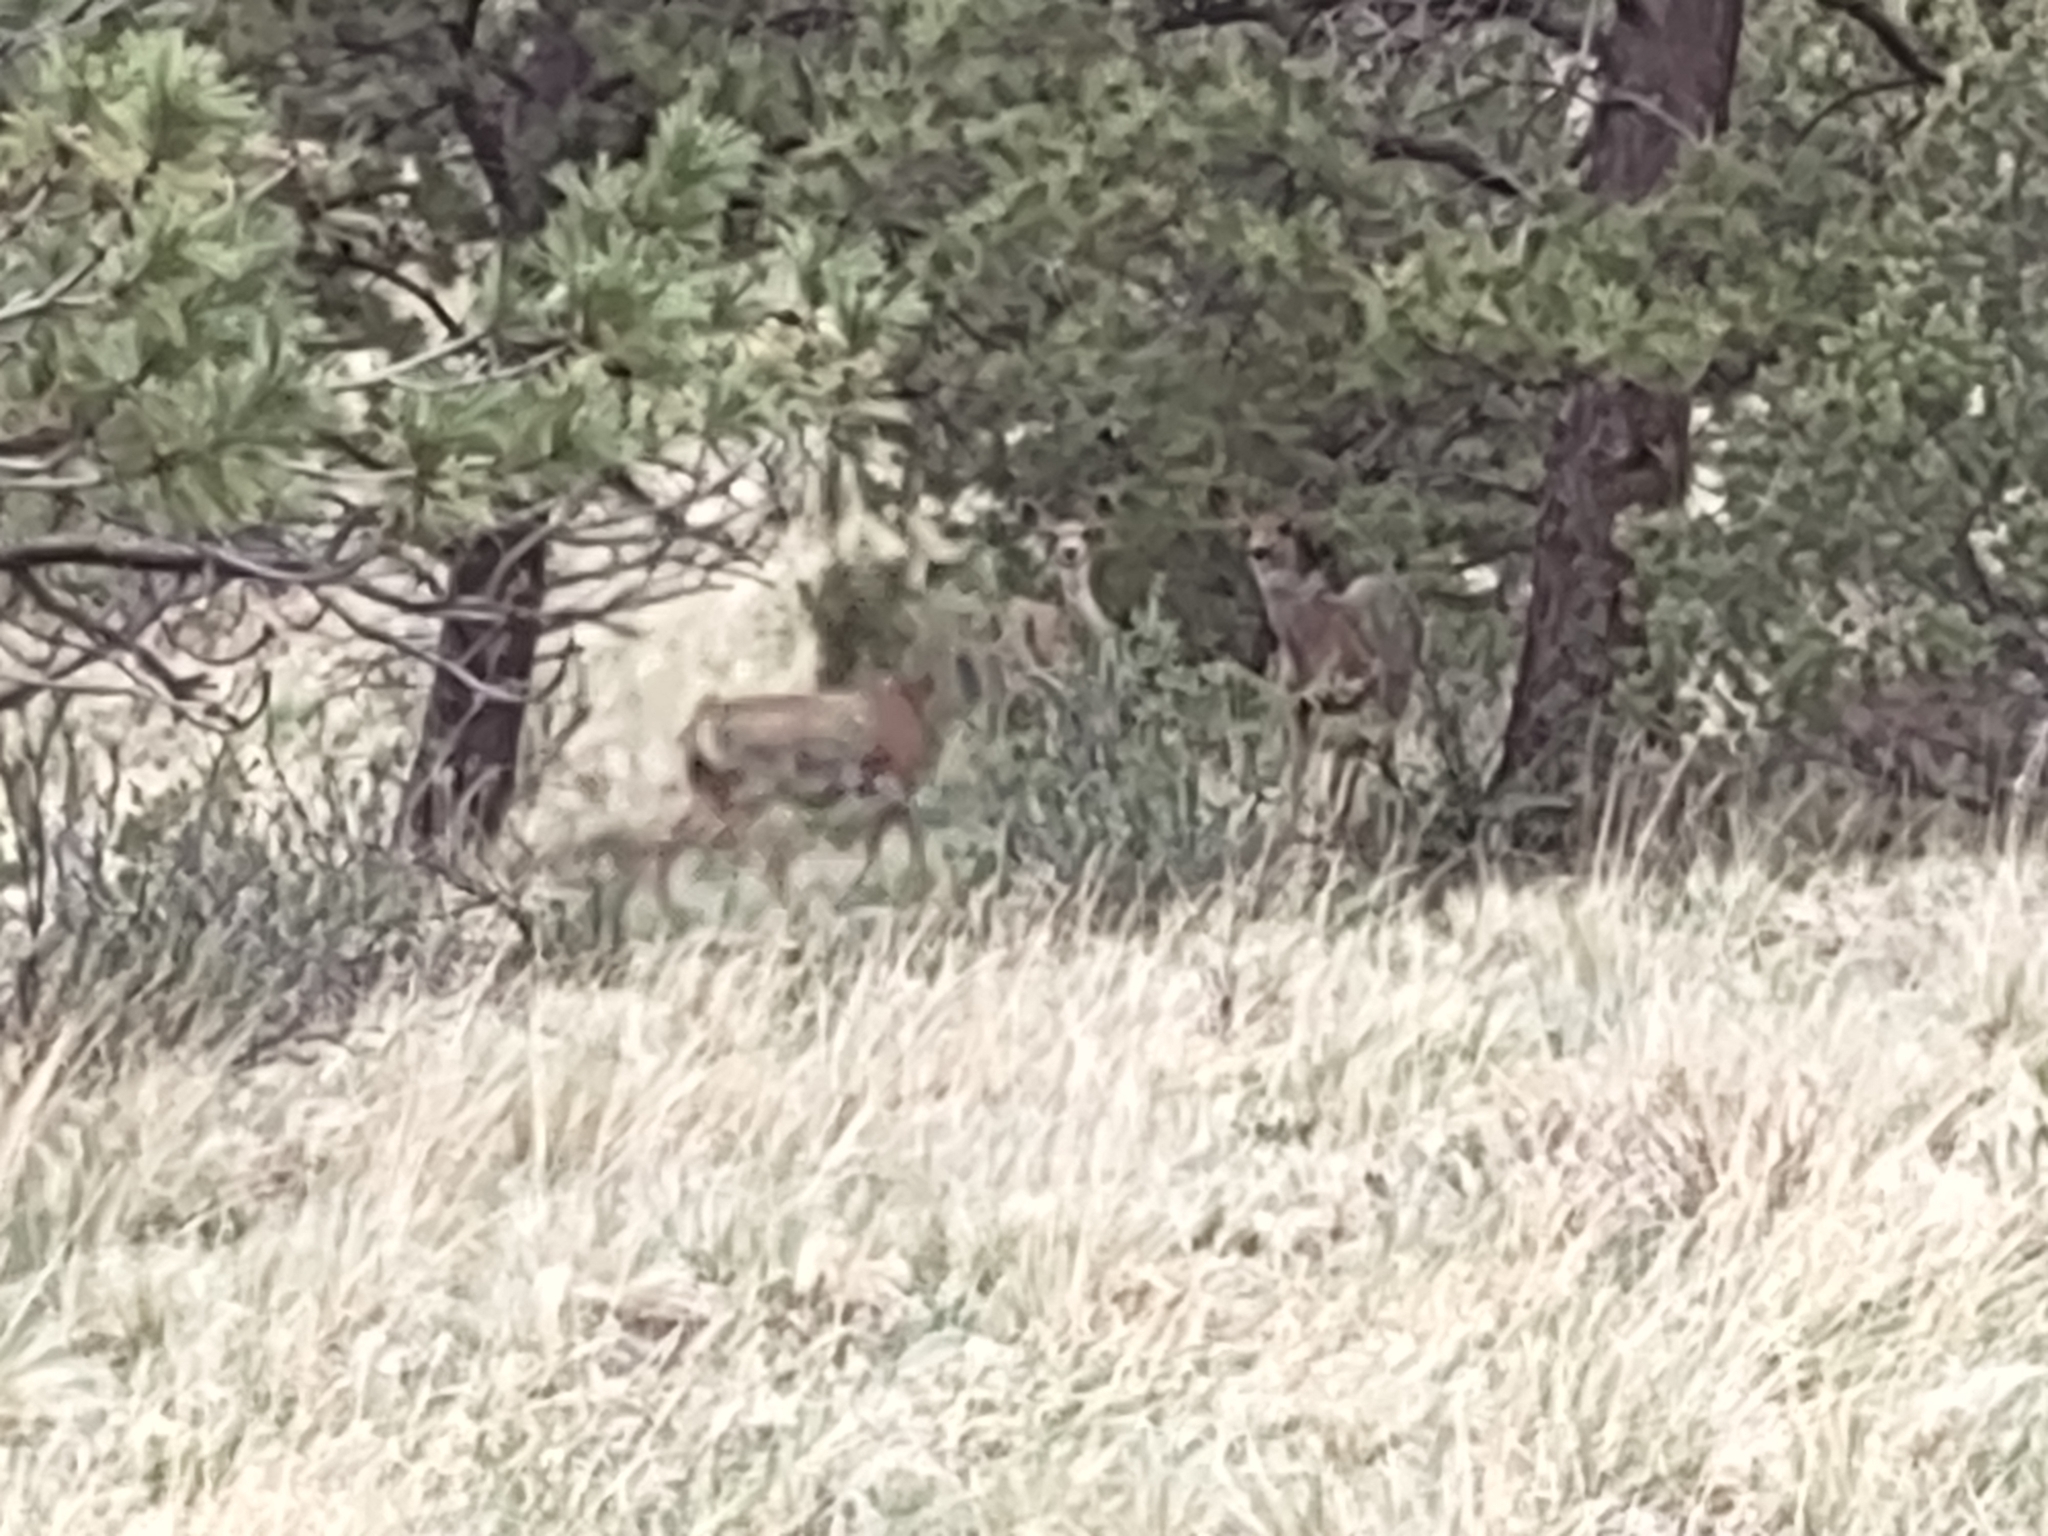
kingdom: Animalia
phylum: Chordata
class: Mammalia
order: Artiodactyla
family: Cervidae
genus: Odocoileus
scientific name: Odocoileus hemionus
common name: Mule deer
